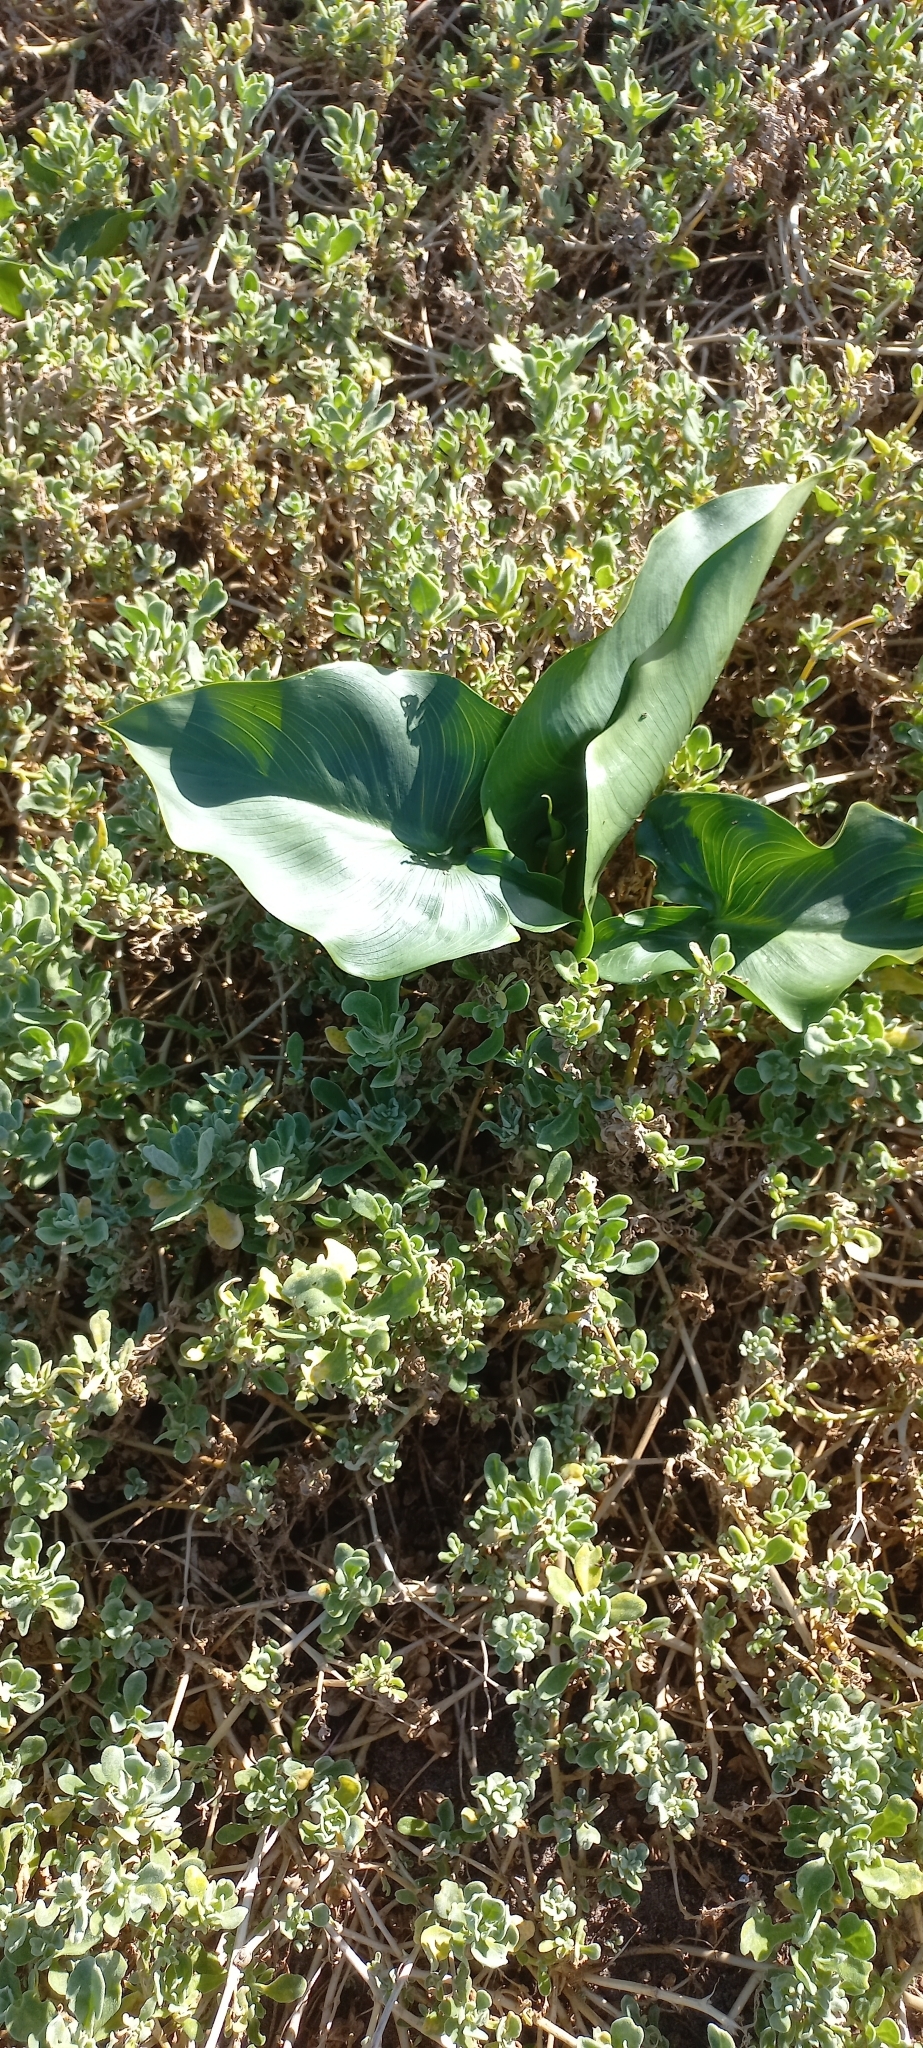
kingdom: Plantae
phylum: Tracheophyta
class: Liliopsida
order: Alismatales
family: Araceae
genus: Zantedeschia
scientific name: Zantedeschia aethiopica
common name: Altar-lily
